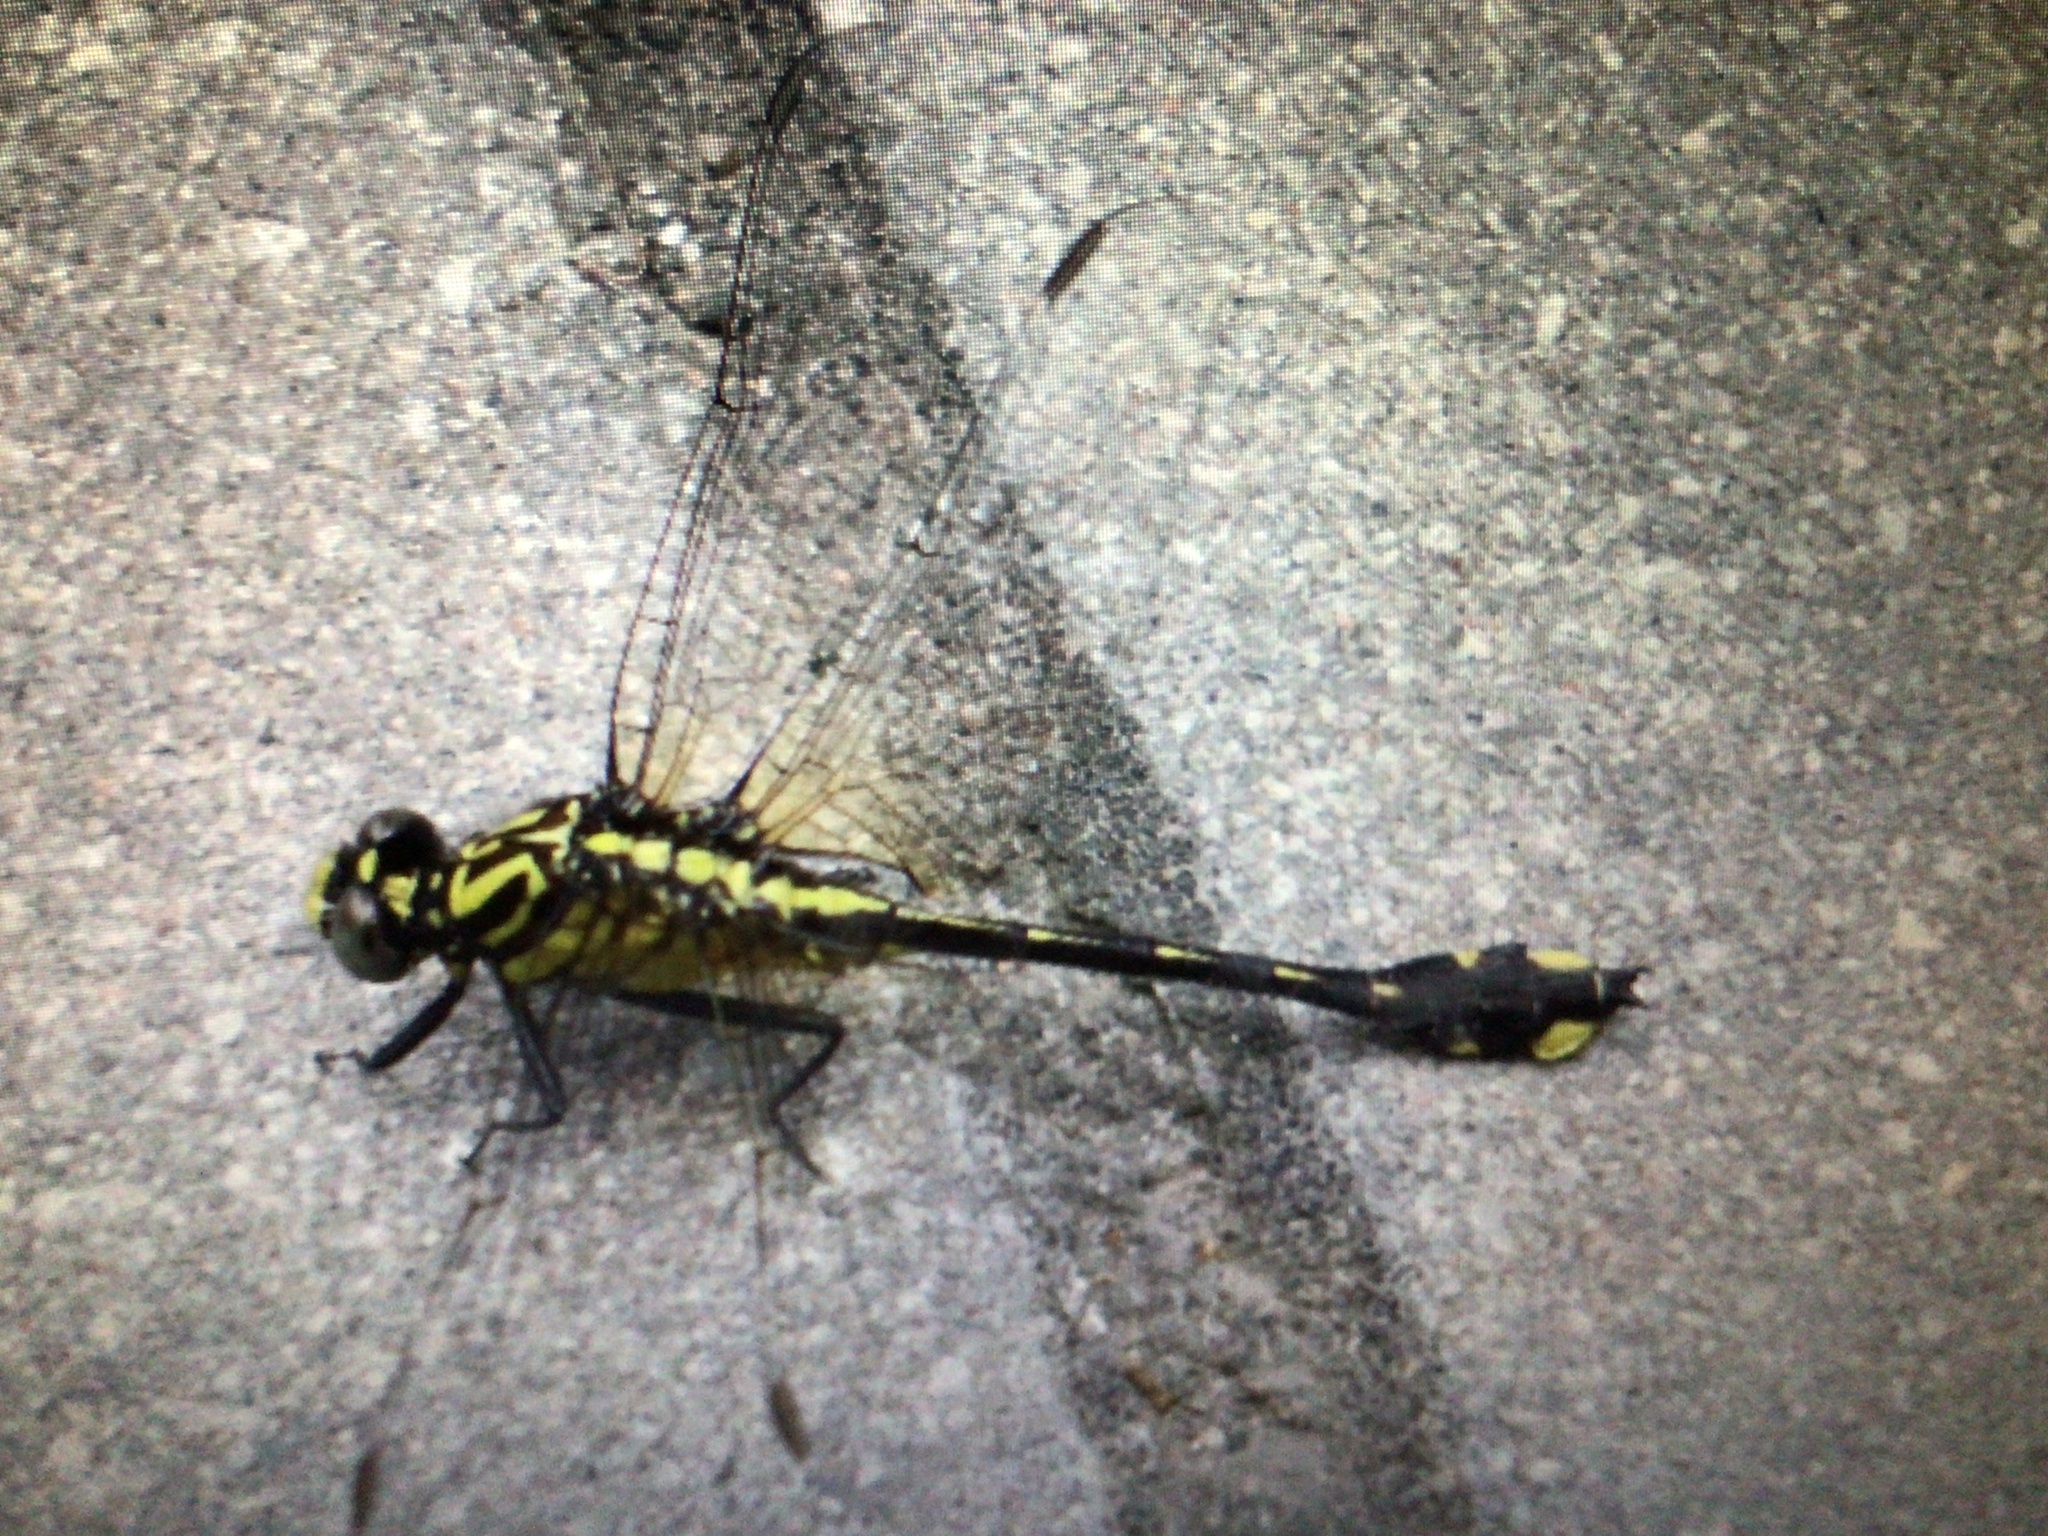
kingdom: Animalia
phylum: Arthropoda
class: Insecta
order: Odonata
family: Gomphidae
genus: Gomphurus
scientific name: Gomphurus vastus
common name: Cobra clubtail
